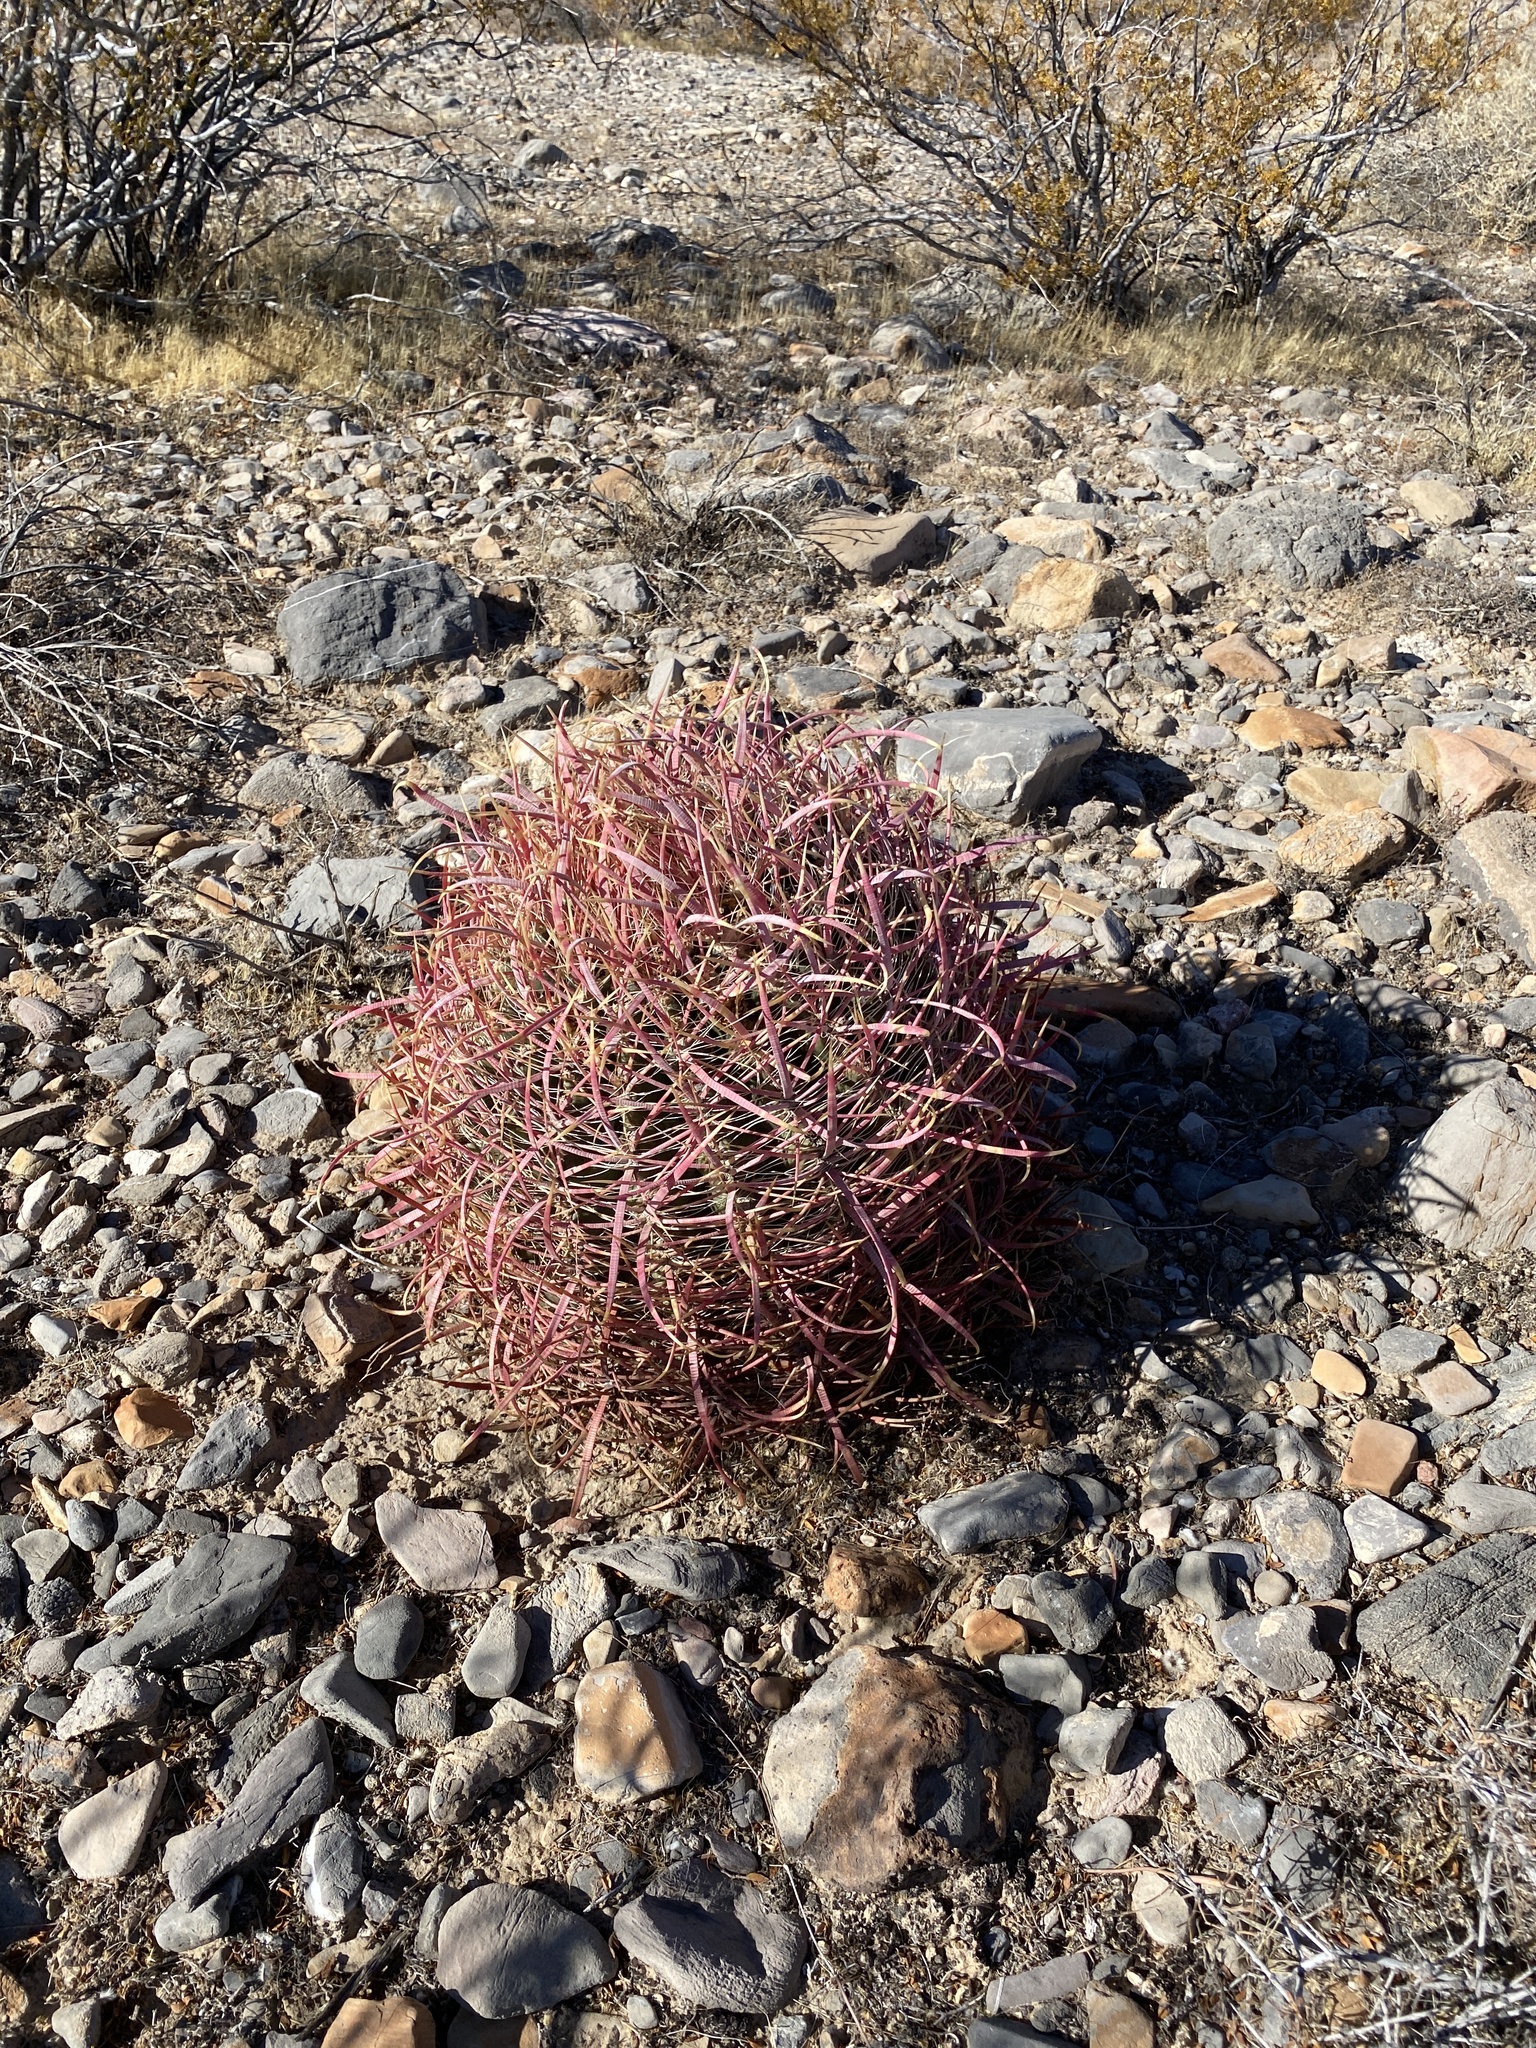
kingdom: Plantae
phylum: Tracheophyta
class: Magnoliopsida
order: Caryophyllales
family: Cactaceae
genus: Ferocactus
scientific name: Ferocactus cylindraceus
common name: California barrel cactus
